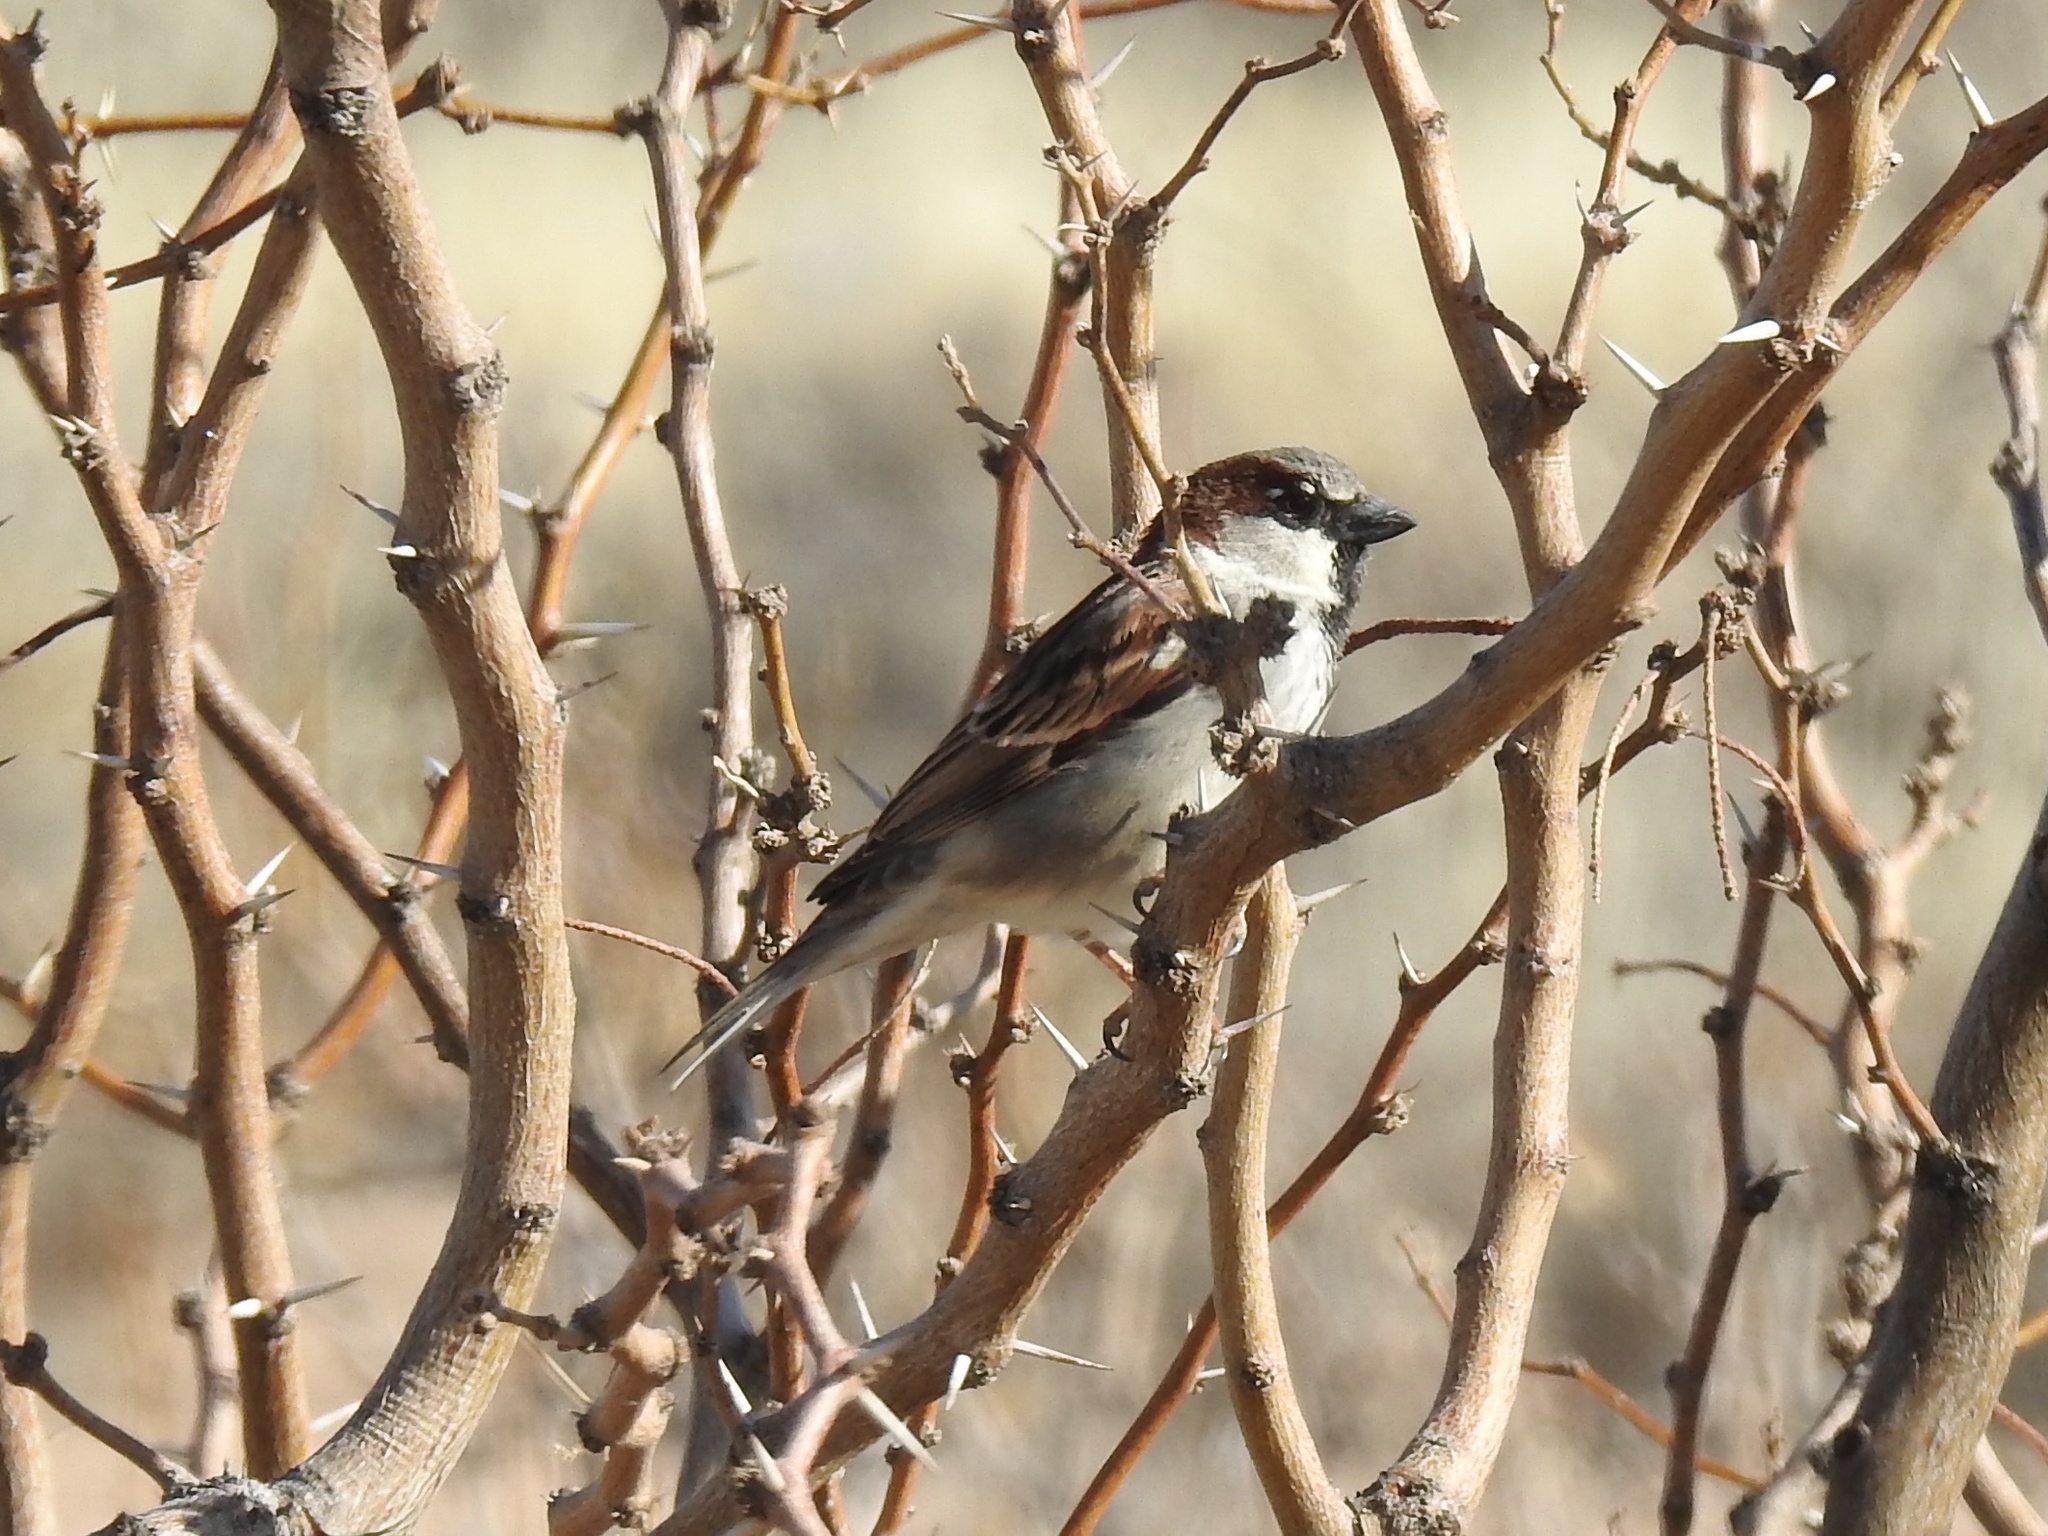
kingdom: Animalia
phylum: Chordata
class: Aves
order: Passeriformes
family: Passeridae
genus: Passer
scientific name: Passer domesticus
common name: House sparrow
